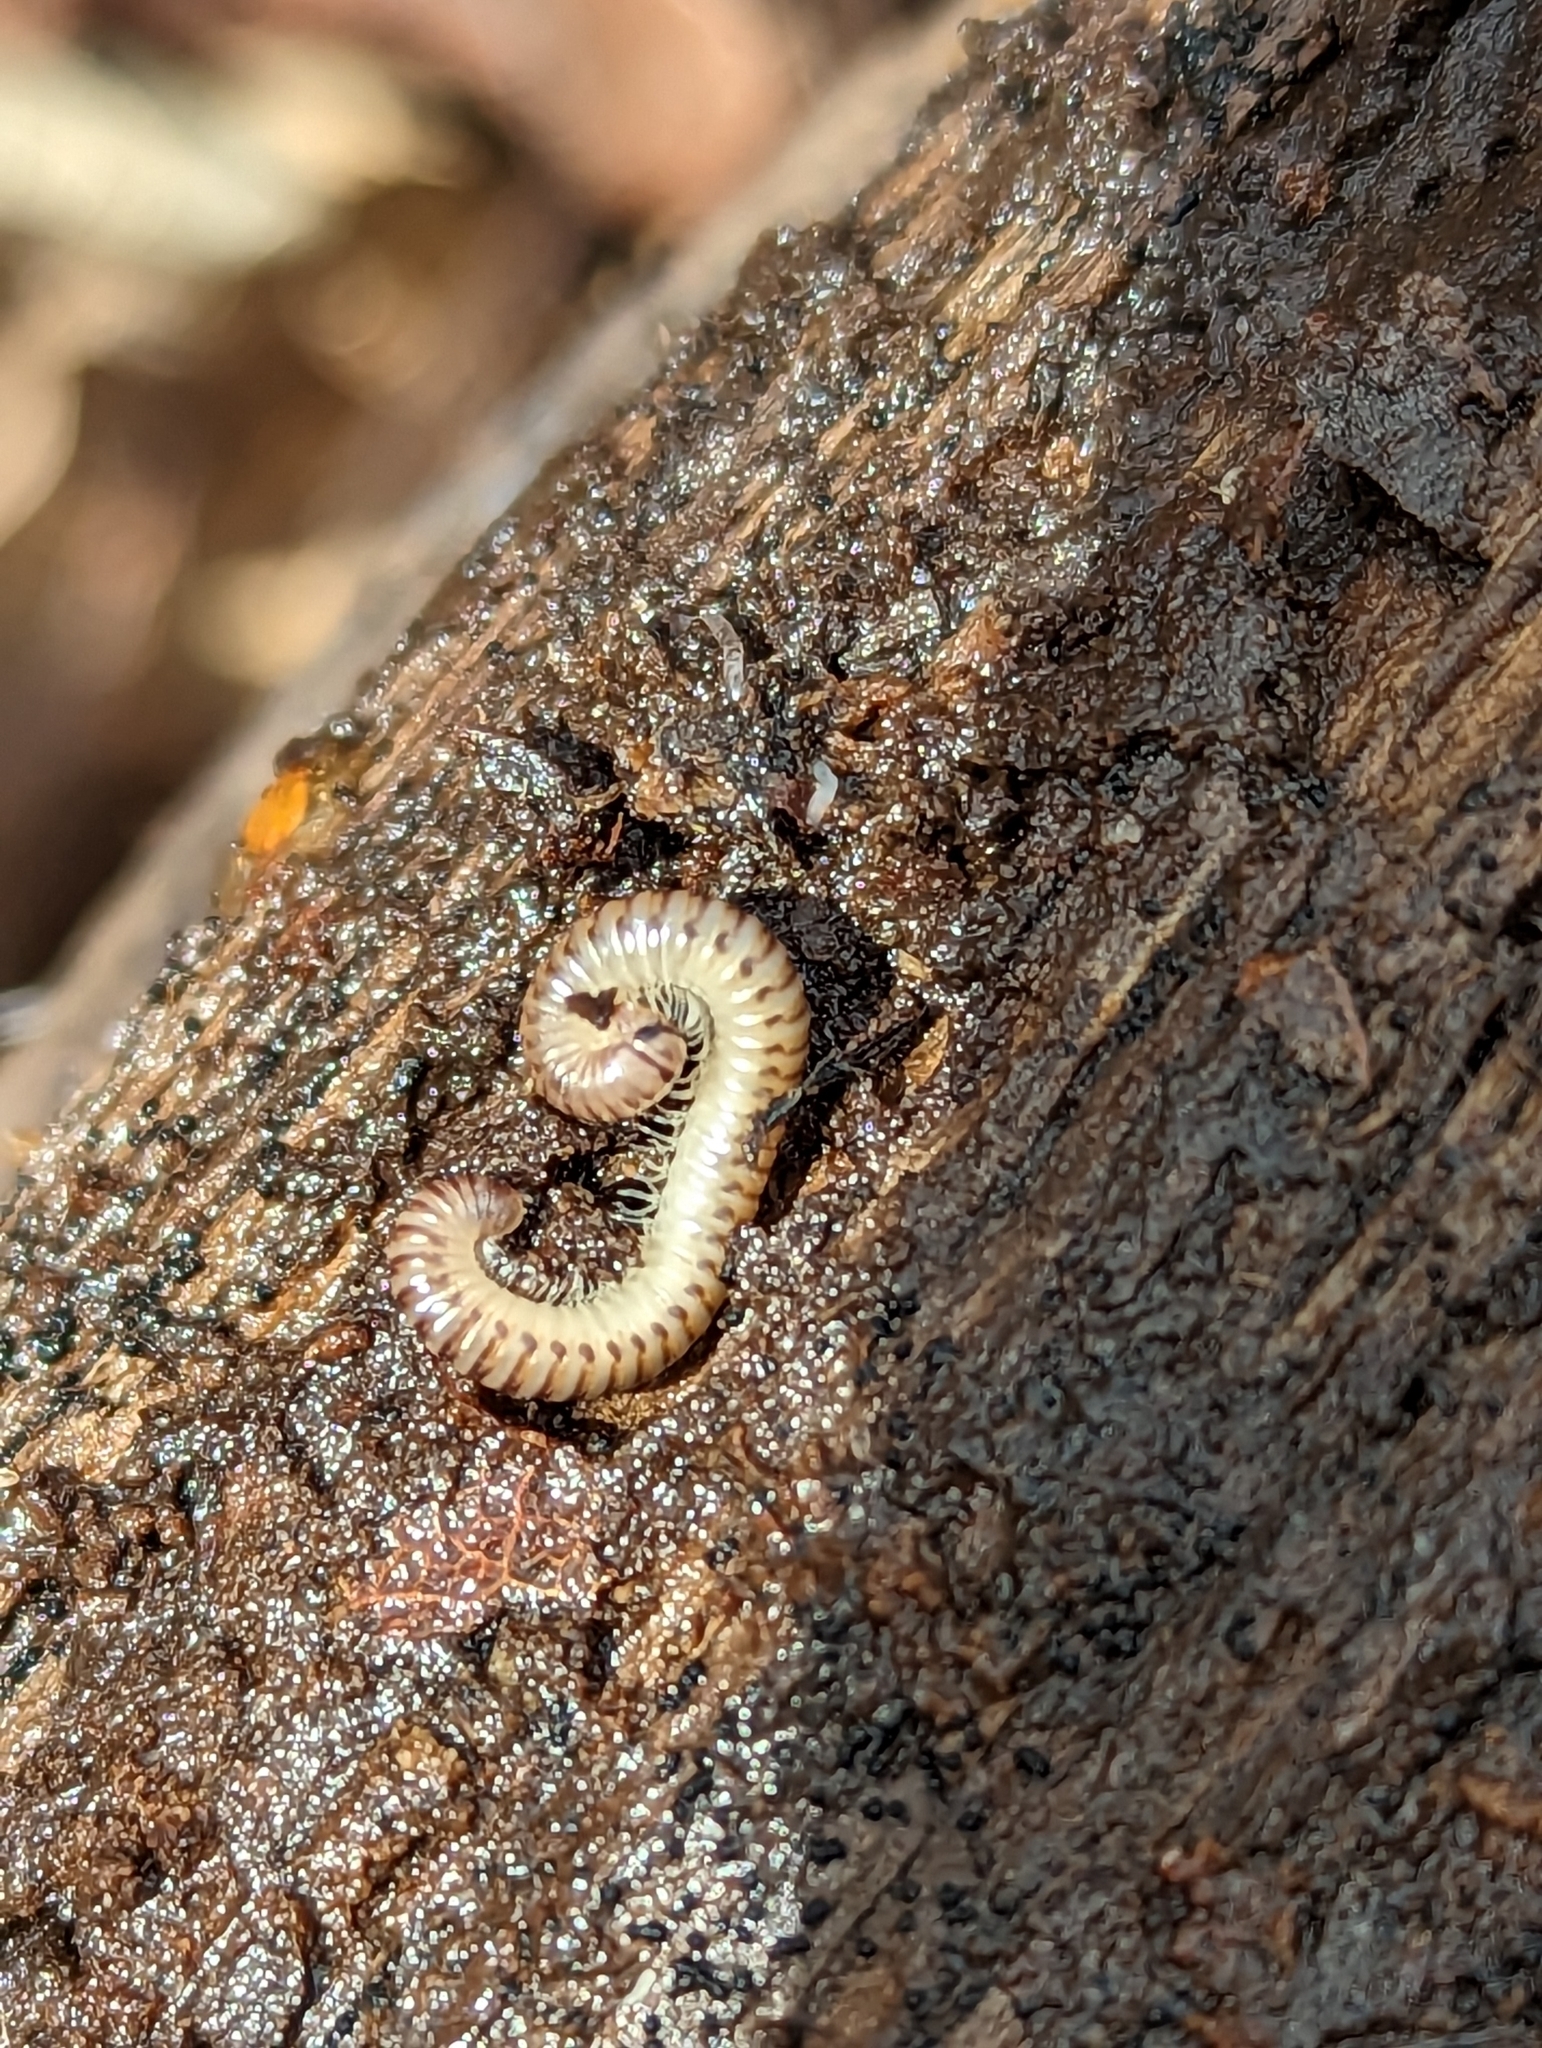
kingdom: Animalia
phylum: Arthropoda
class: Diplopoda
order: Julida
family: Julidae
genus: Cylindroiulus
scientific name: Cylindroiulus punctatus
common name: Blunt-tailed millipede
